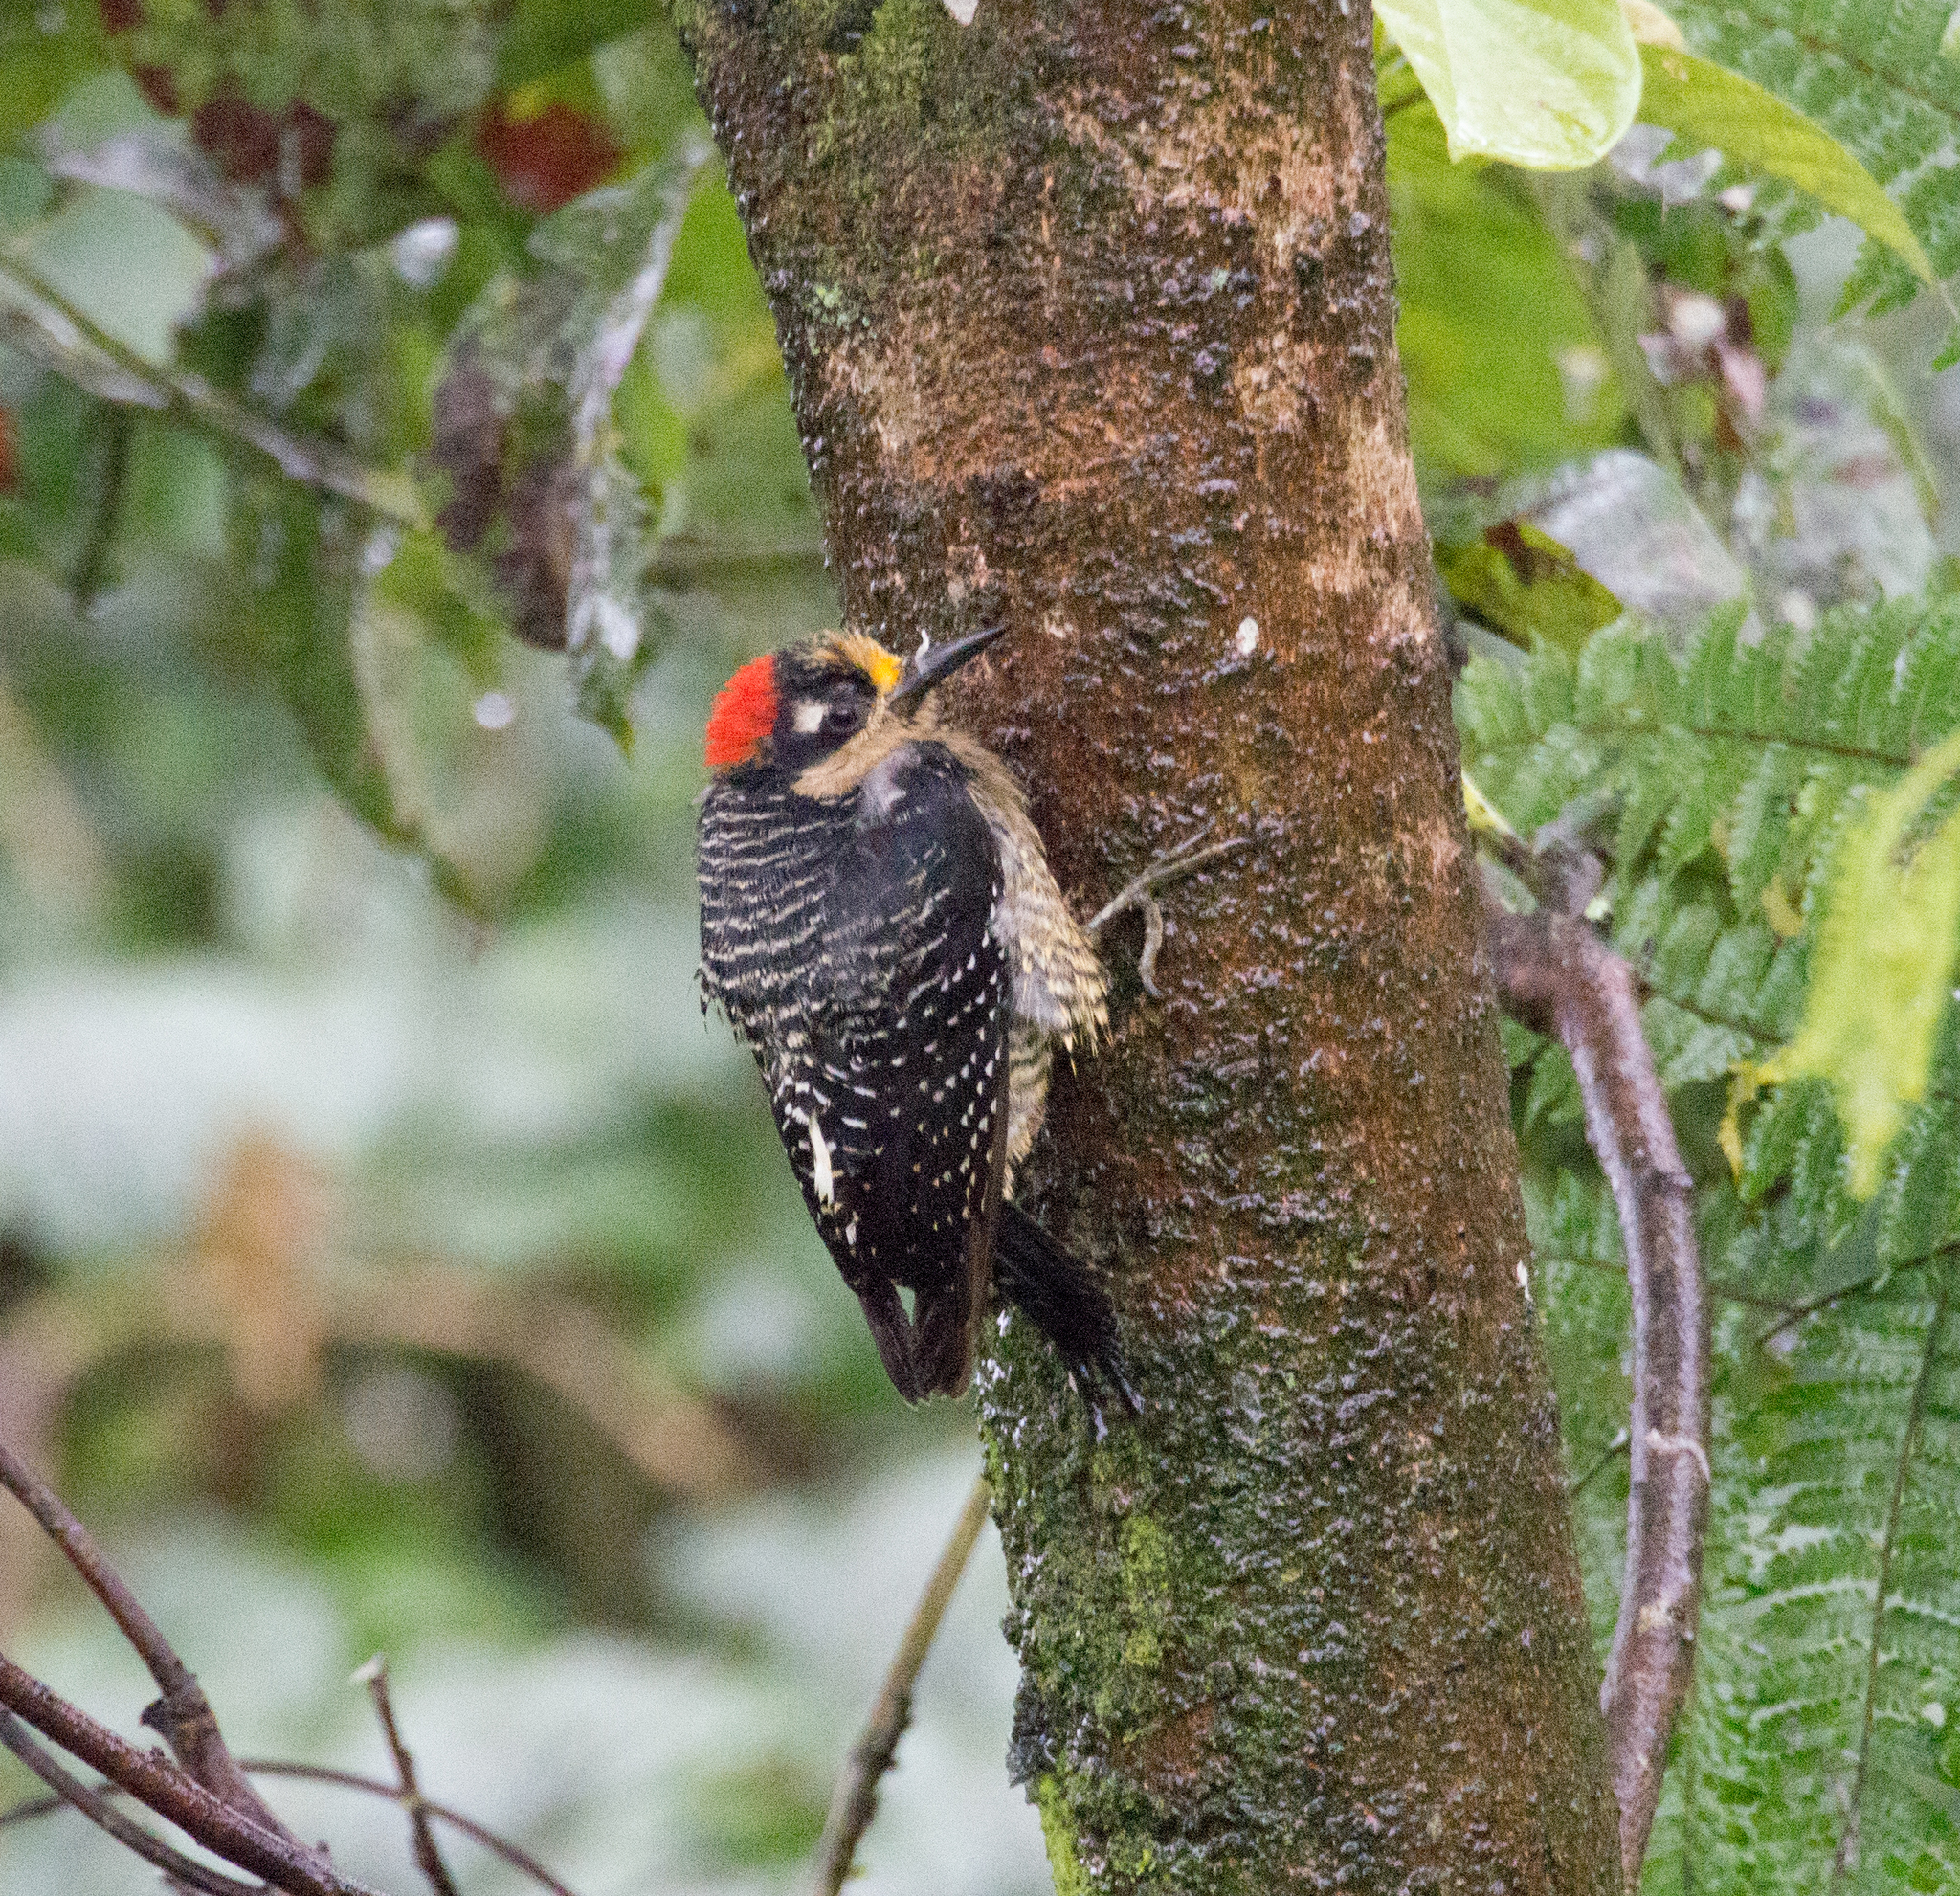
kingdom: Animalia
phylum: Chordata
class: Aves
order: Piciformes
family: Picidae
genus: Melanerpes
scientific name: Melanerpes pucherani
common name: Black-cheeked woodpecker
